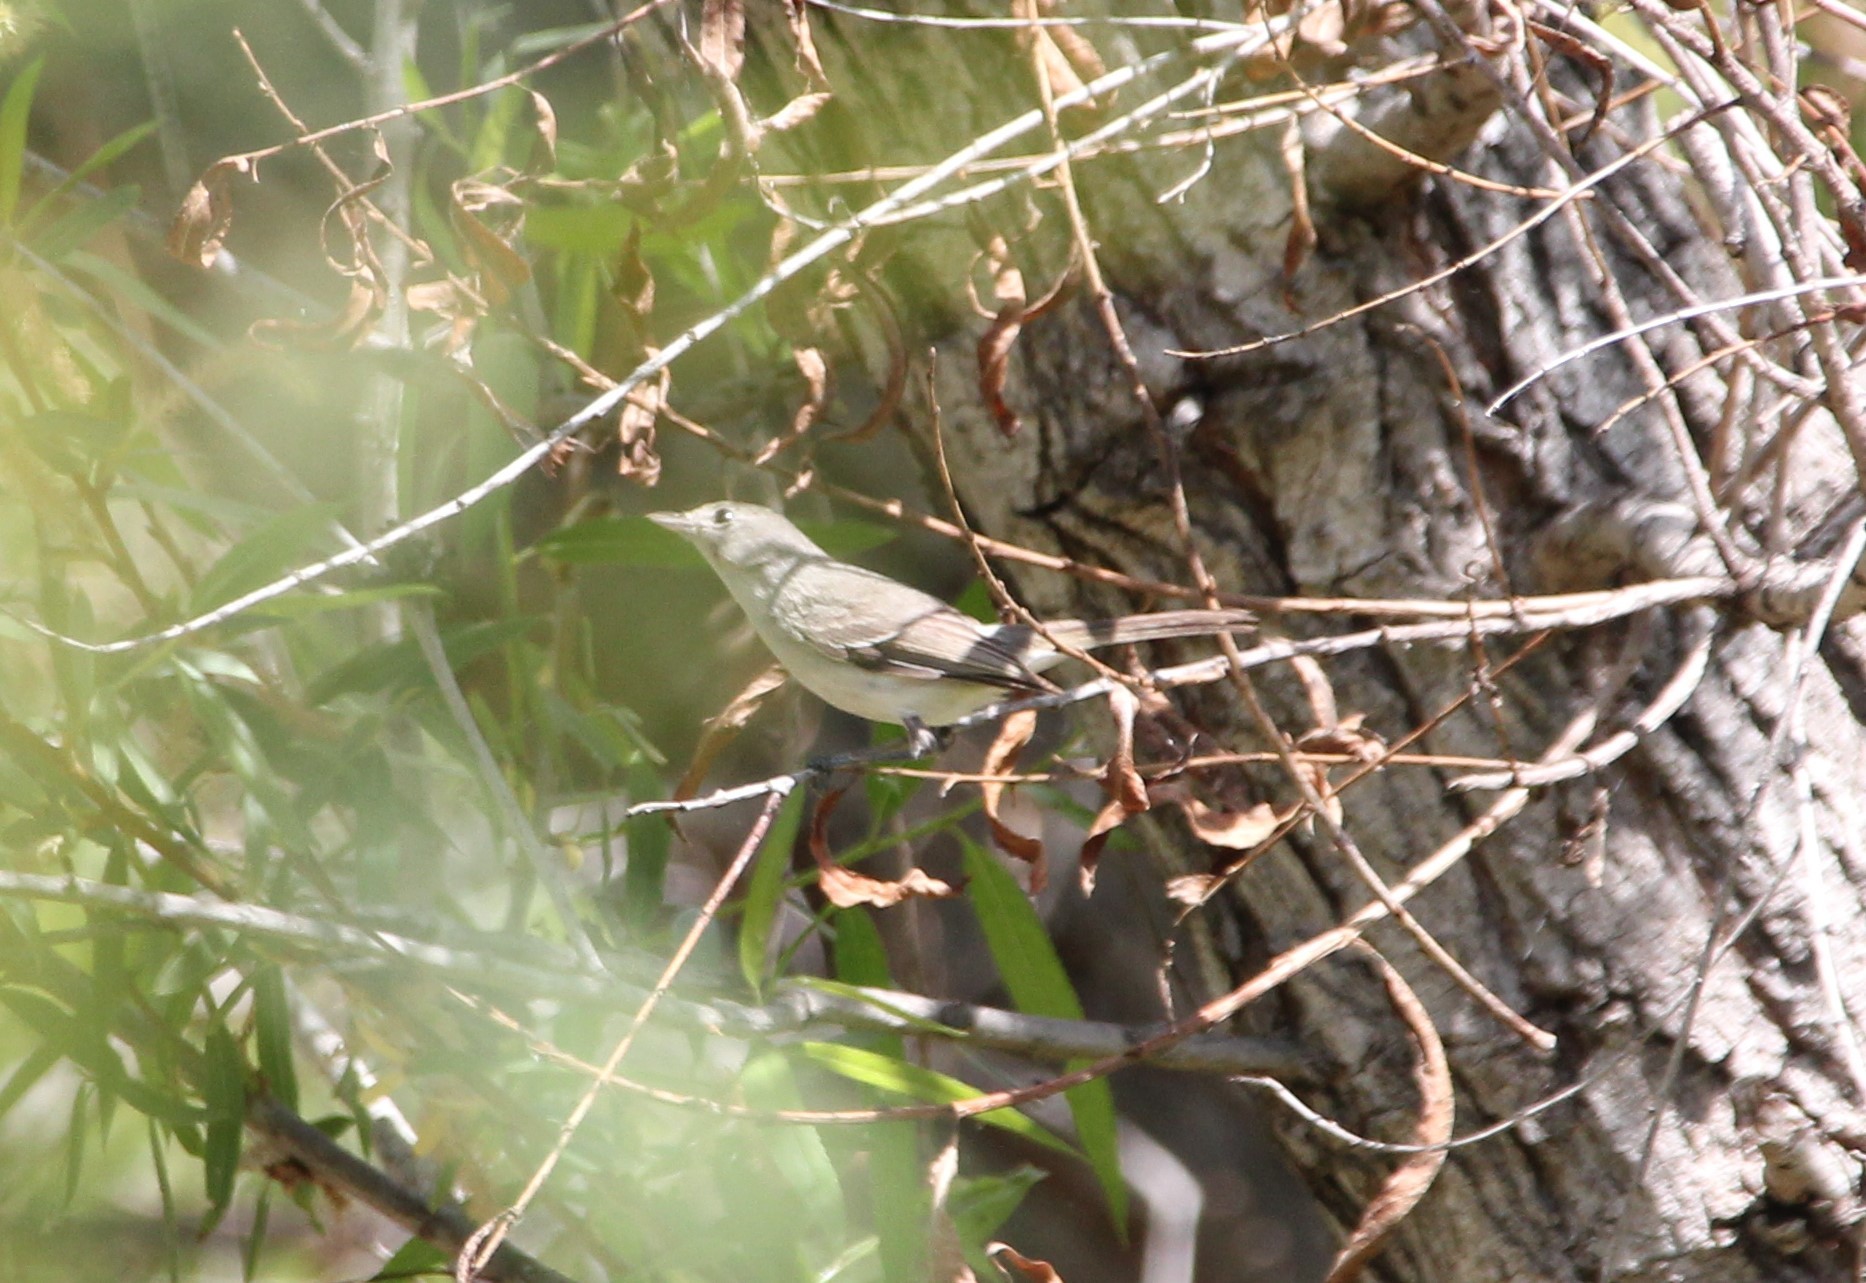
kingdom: Animalia
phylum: Chordata
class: Aves
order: Passeriformes
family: Vireonidae
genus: Vireo
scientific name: Vireo bellii
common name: Bell's vireo
